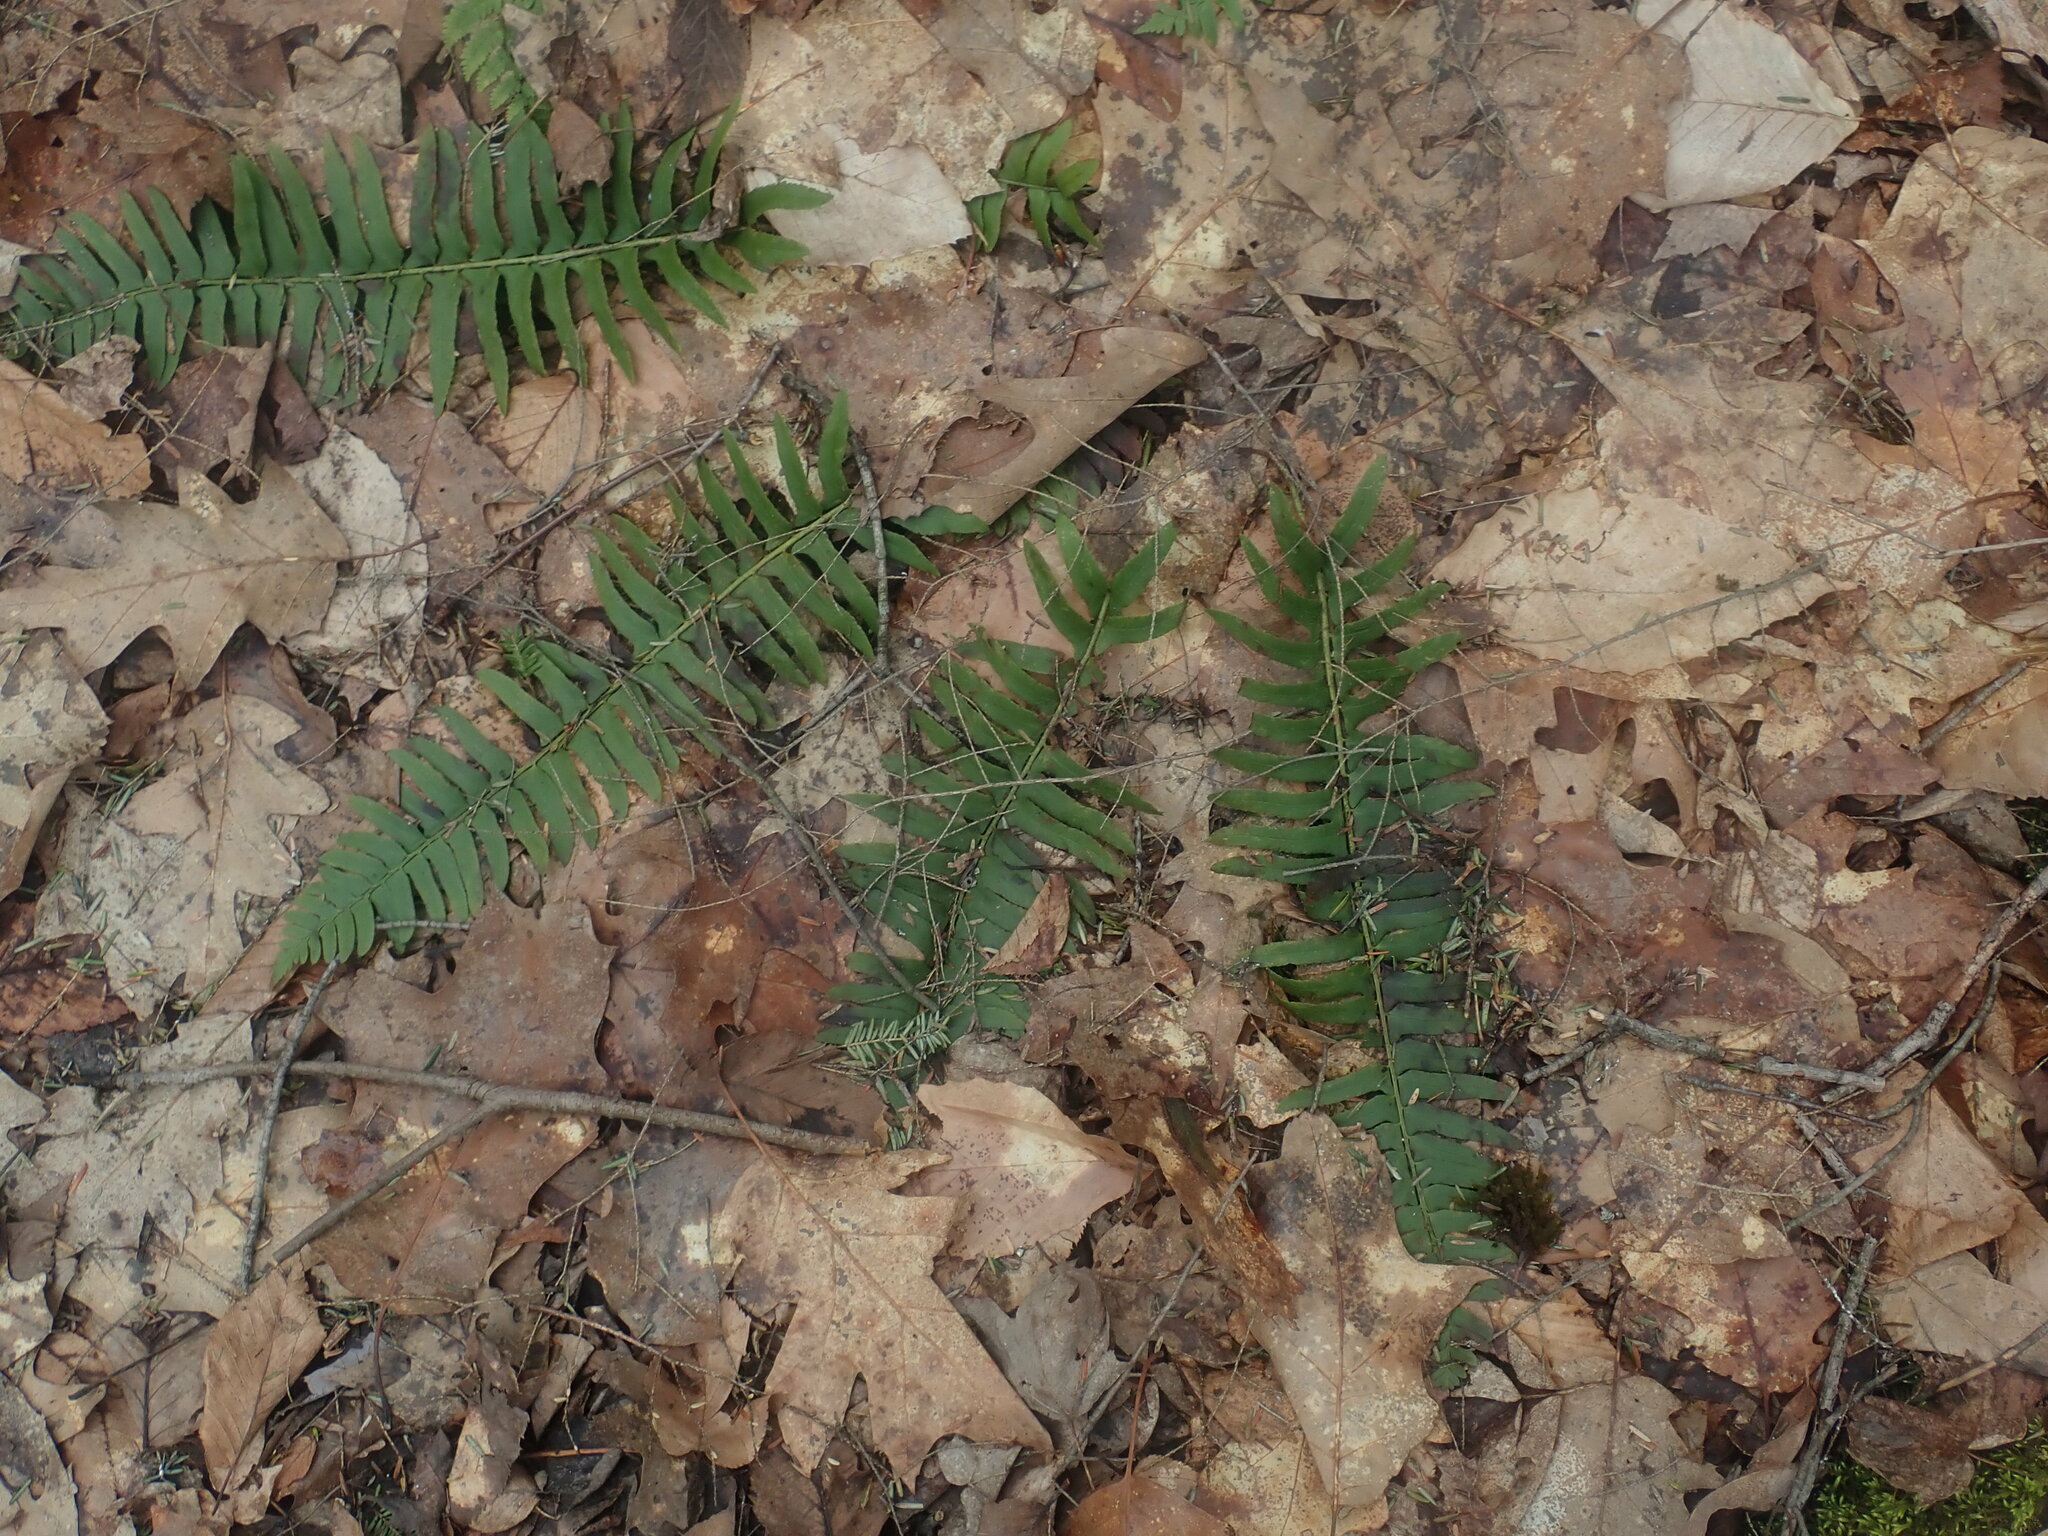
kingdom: Plantae
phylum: Tracheophyta
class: Polypodiopsida
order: Polypodiales
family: Dryopteridaceae
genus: Polystichum
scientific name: Polystichum acrostichoides
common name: Christmas fern
